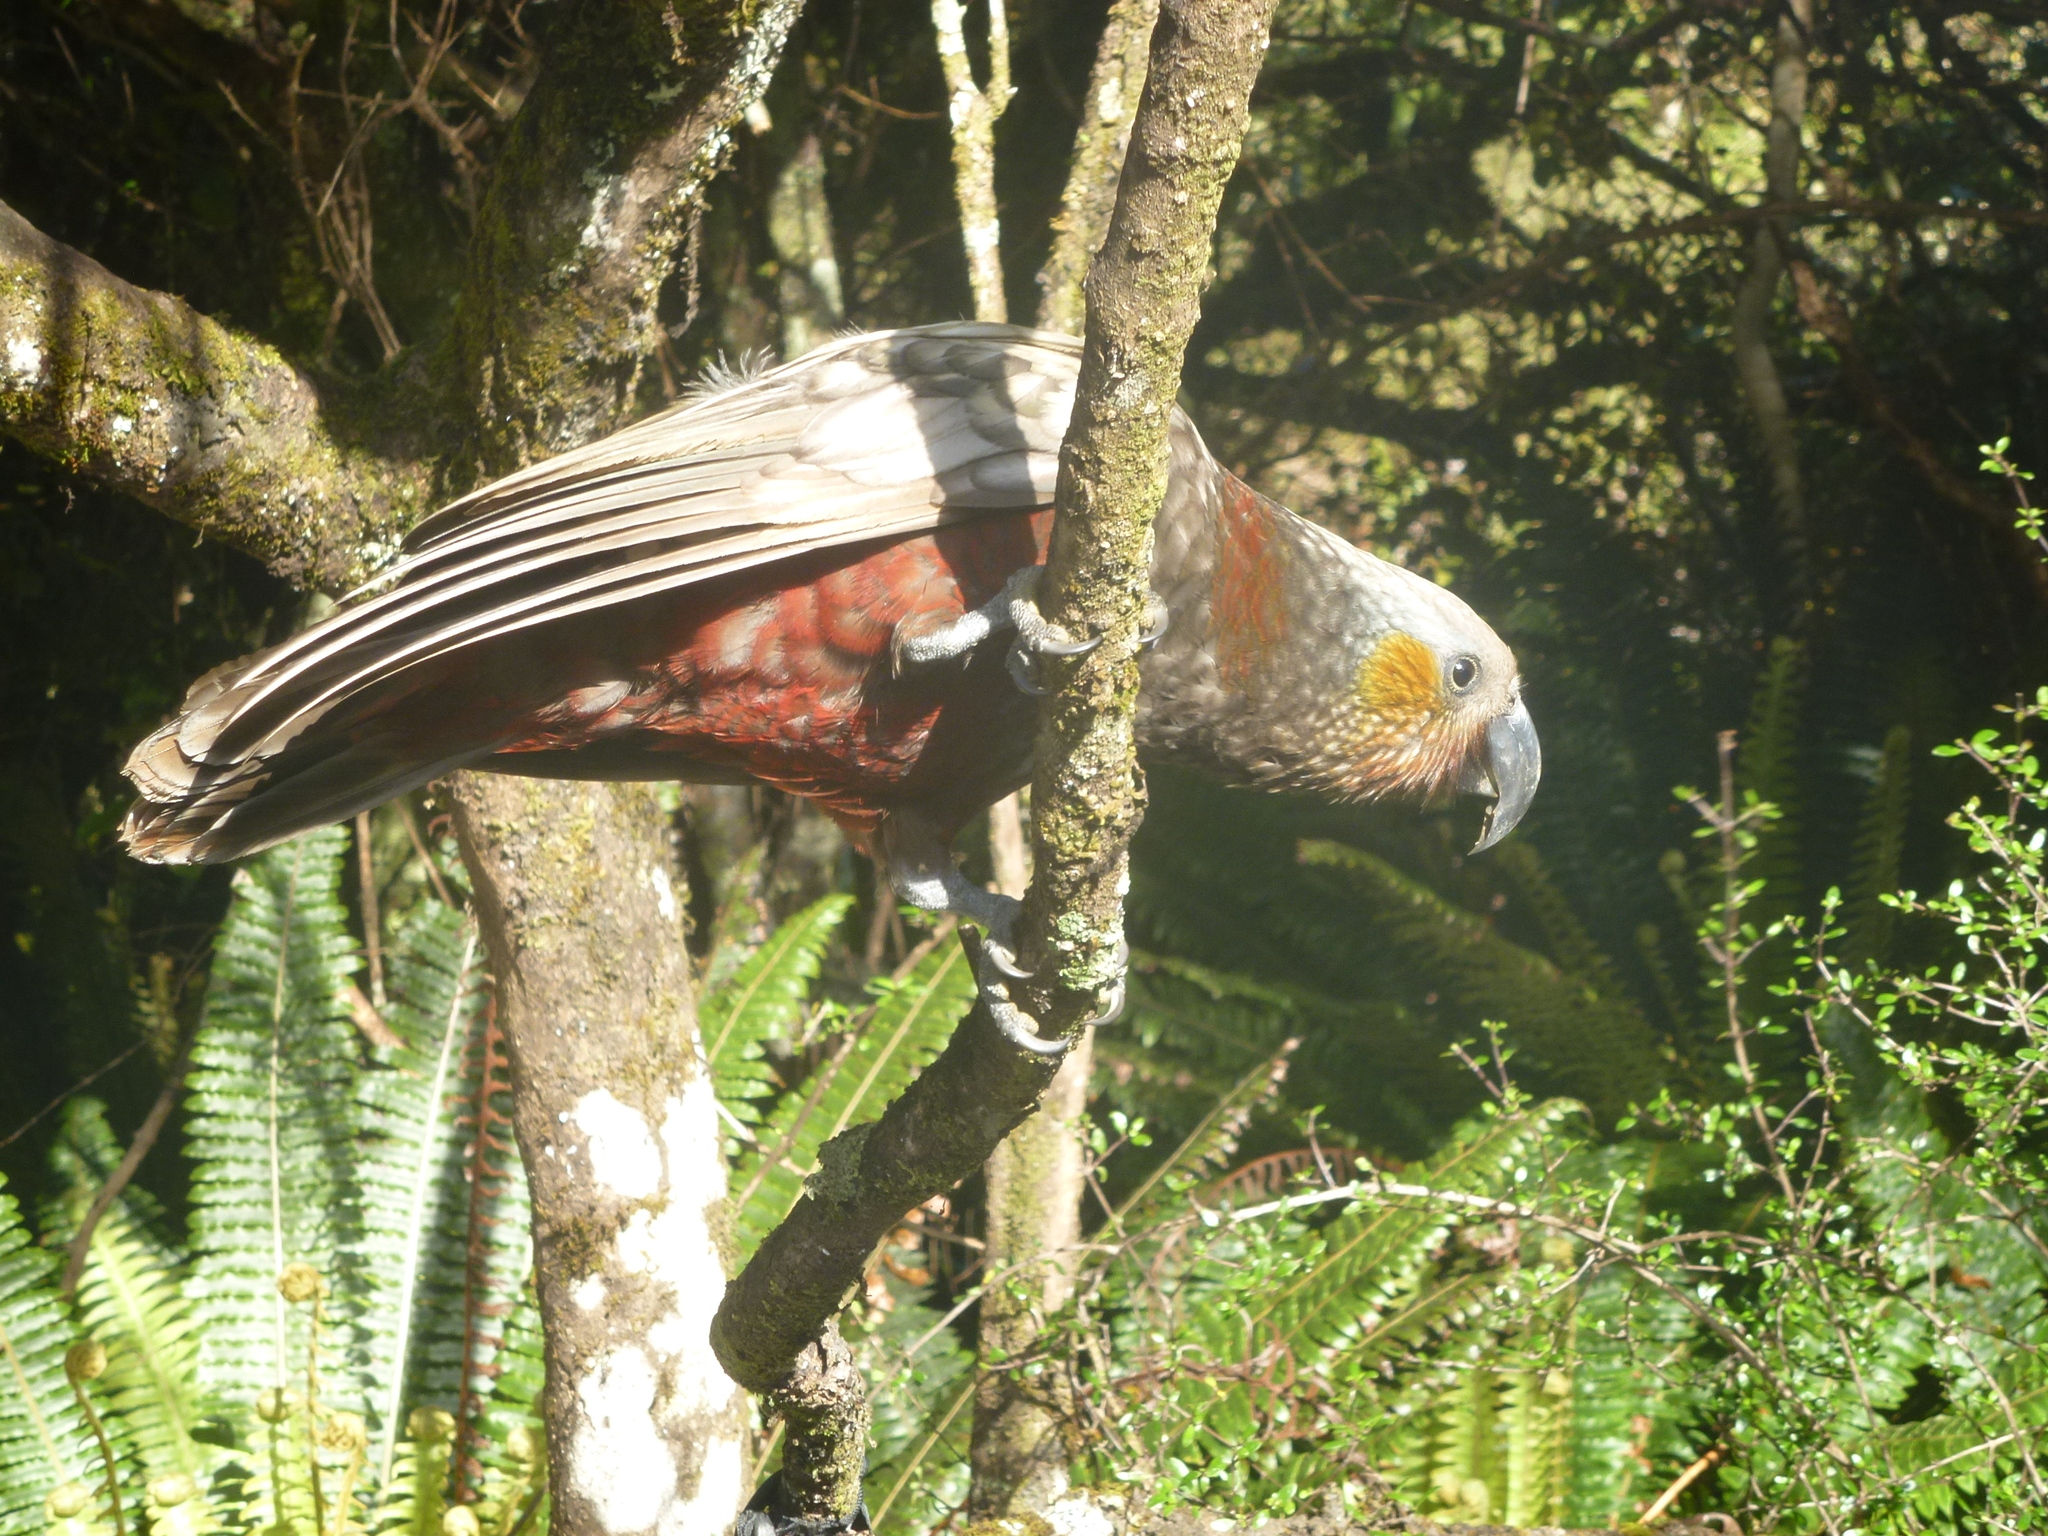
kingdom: Animalia
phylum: Chordata
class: Aves
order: Psittaciformes
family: Psittacidae
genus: Nestor
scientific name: Nestor meridionalis
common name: New zealand kaka
